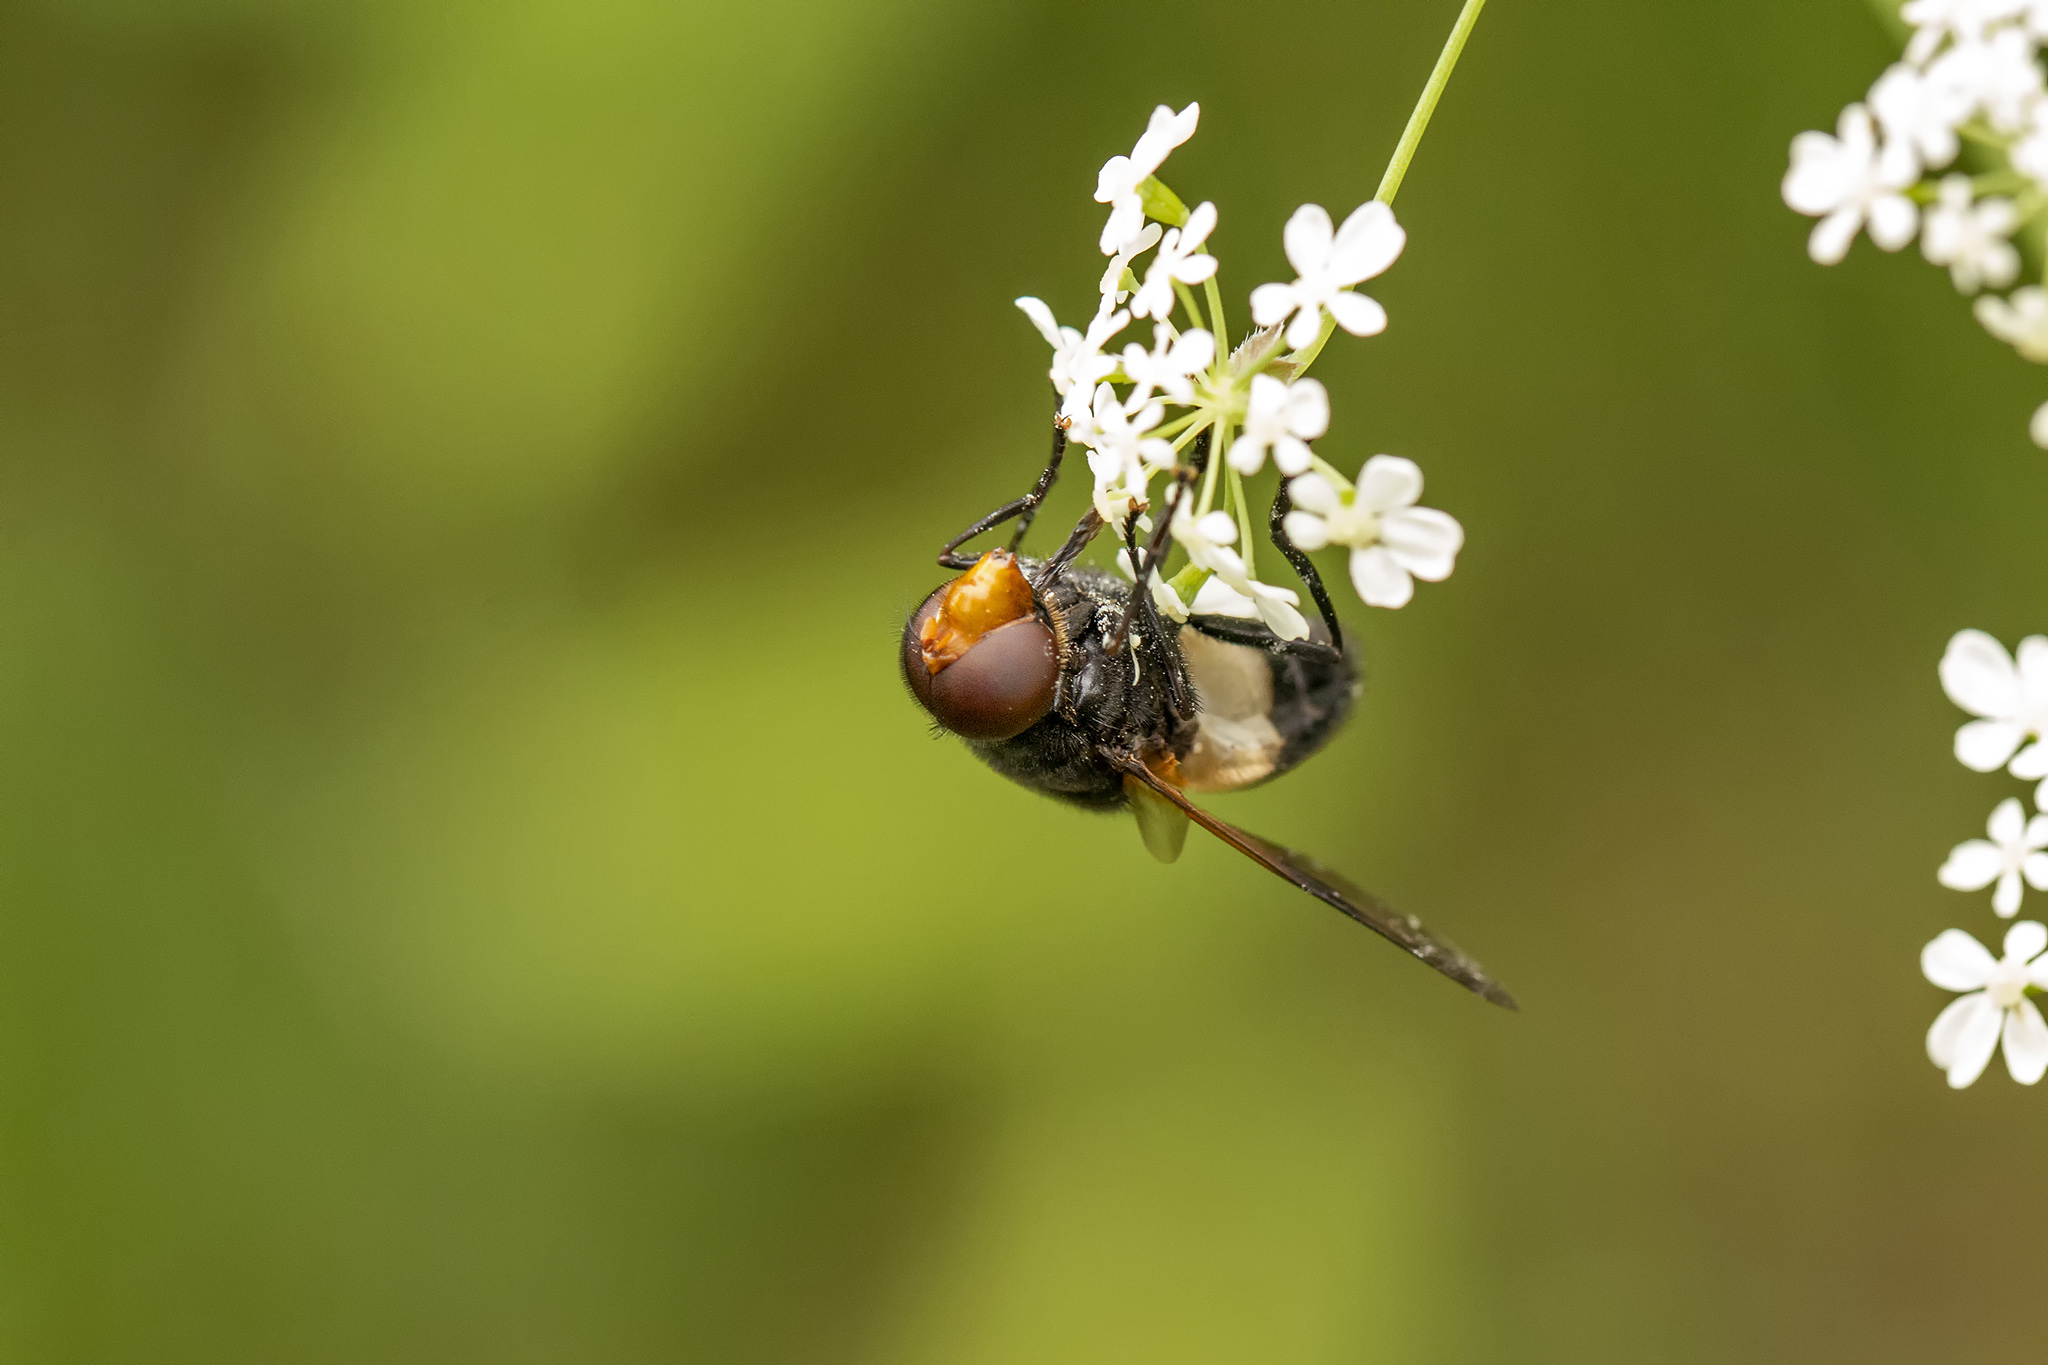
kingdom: Animalia
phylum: Arthropoda
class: Insecta
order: Diptera
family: Syrphidae
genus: Volucella
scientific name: Volucella pellucens
